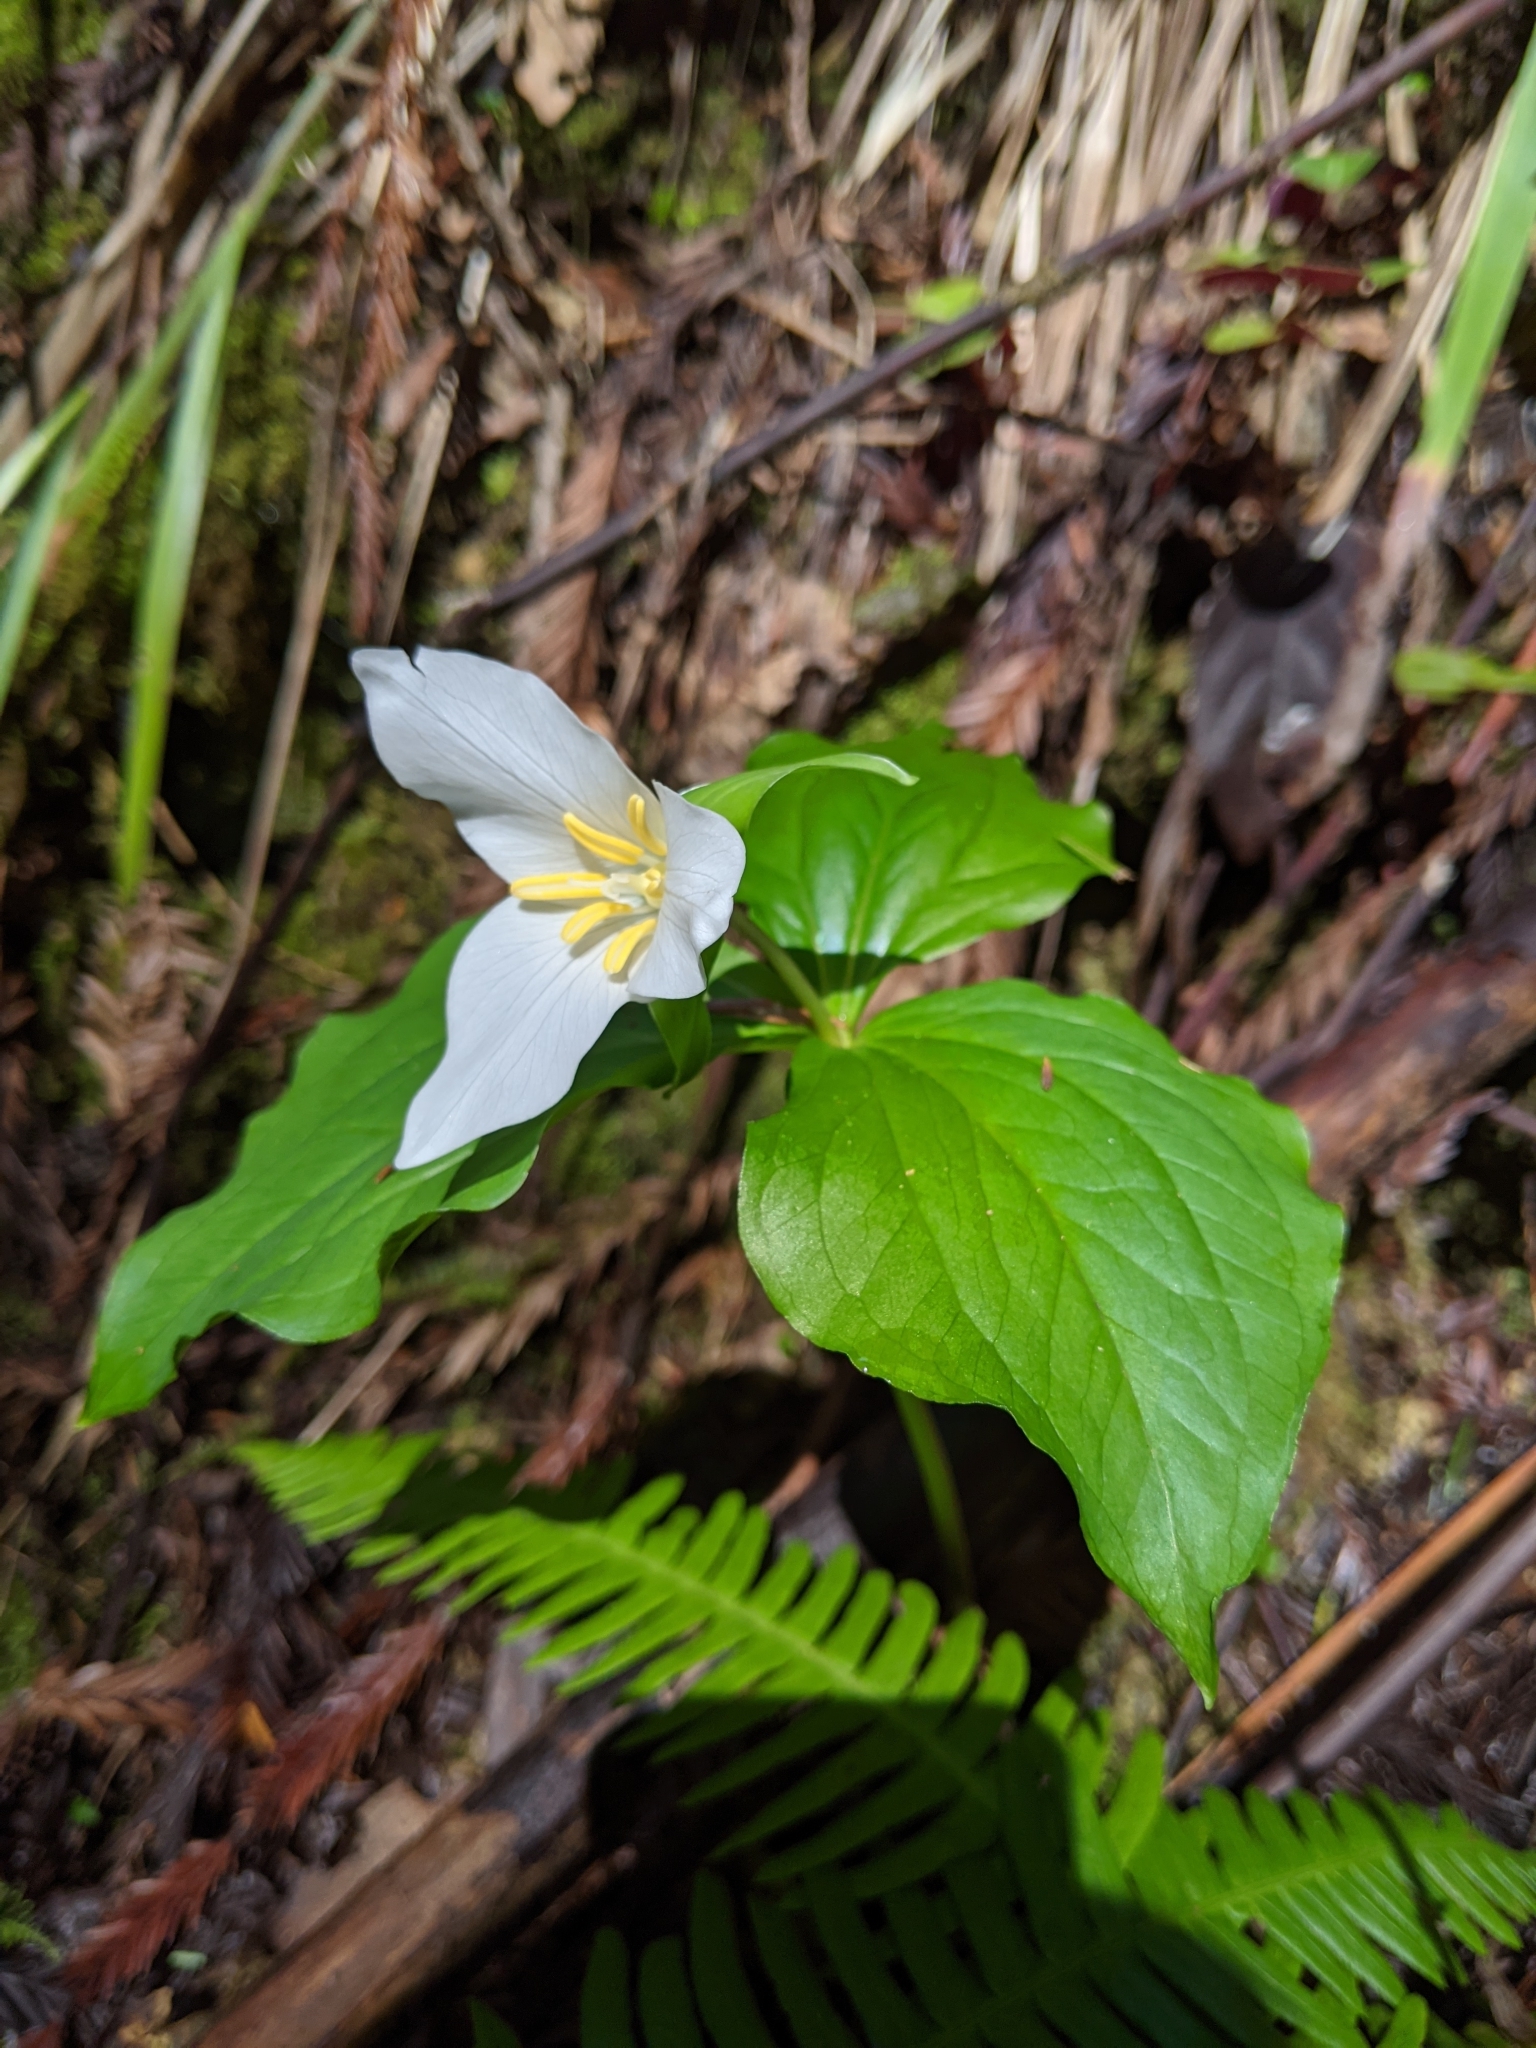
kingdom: Plantae
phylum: Tracheophyta
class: Liliopsida
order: Liliales
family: Melanthiaceae
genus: Trillium
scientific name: Trillium ovatum
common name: Pacific trillium
